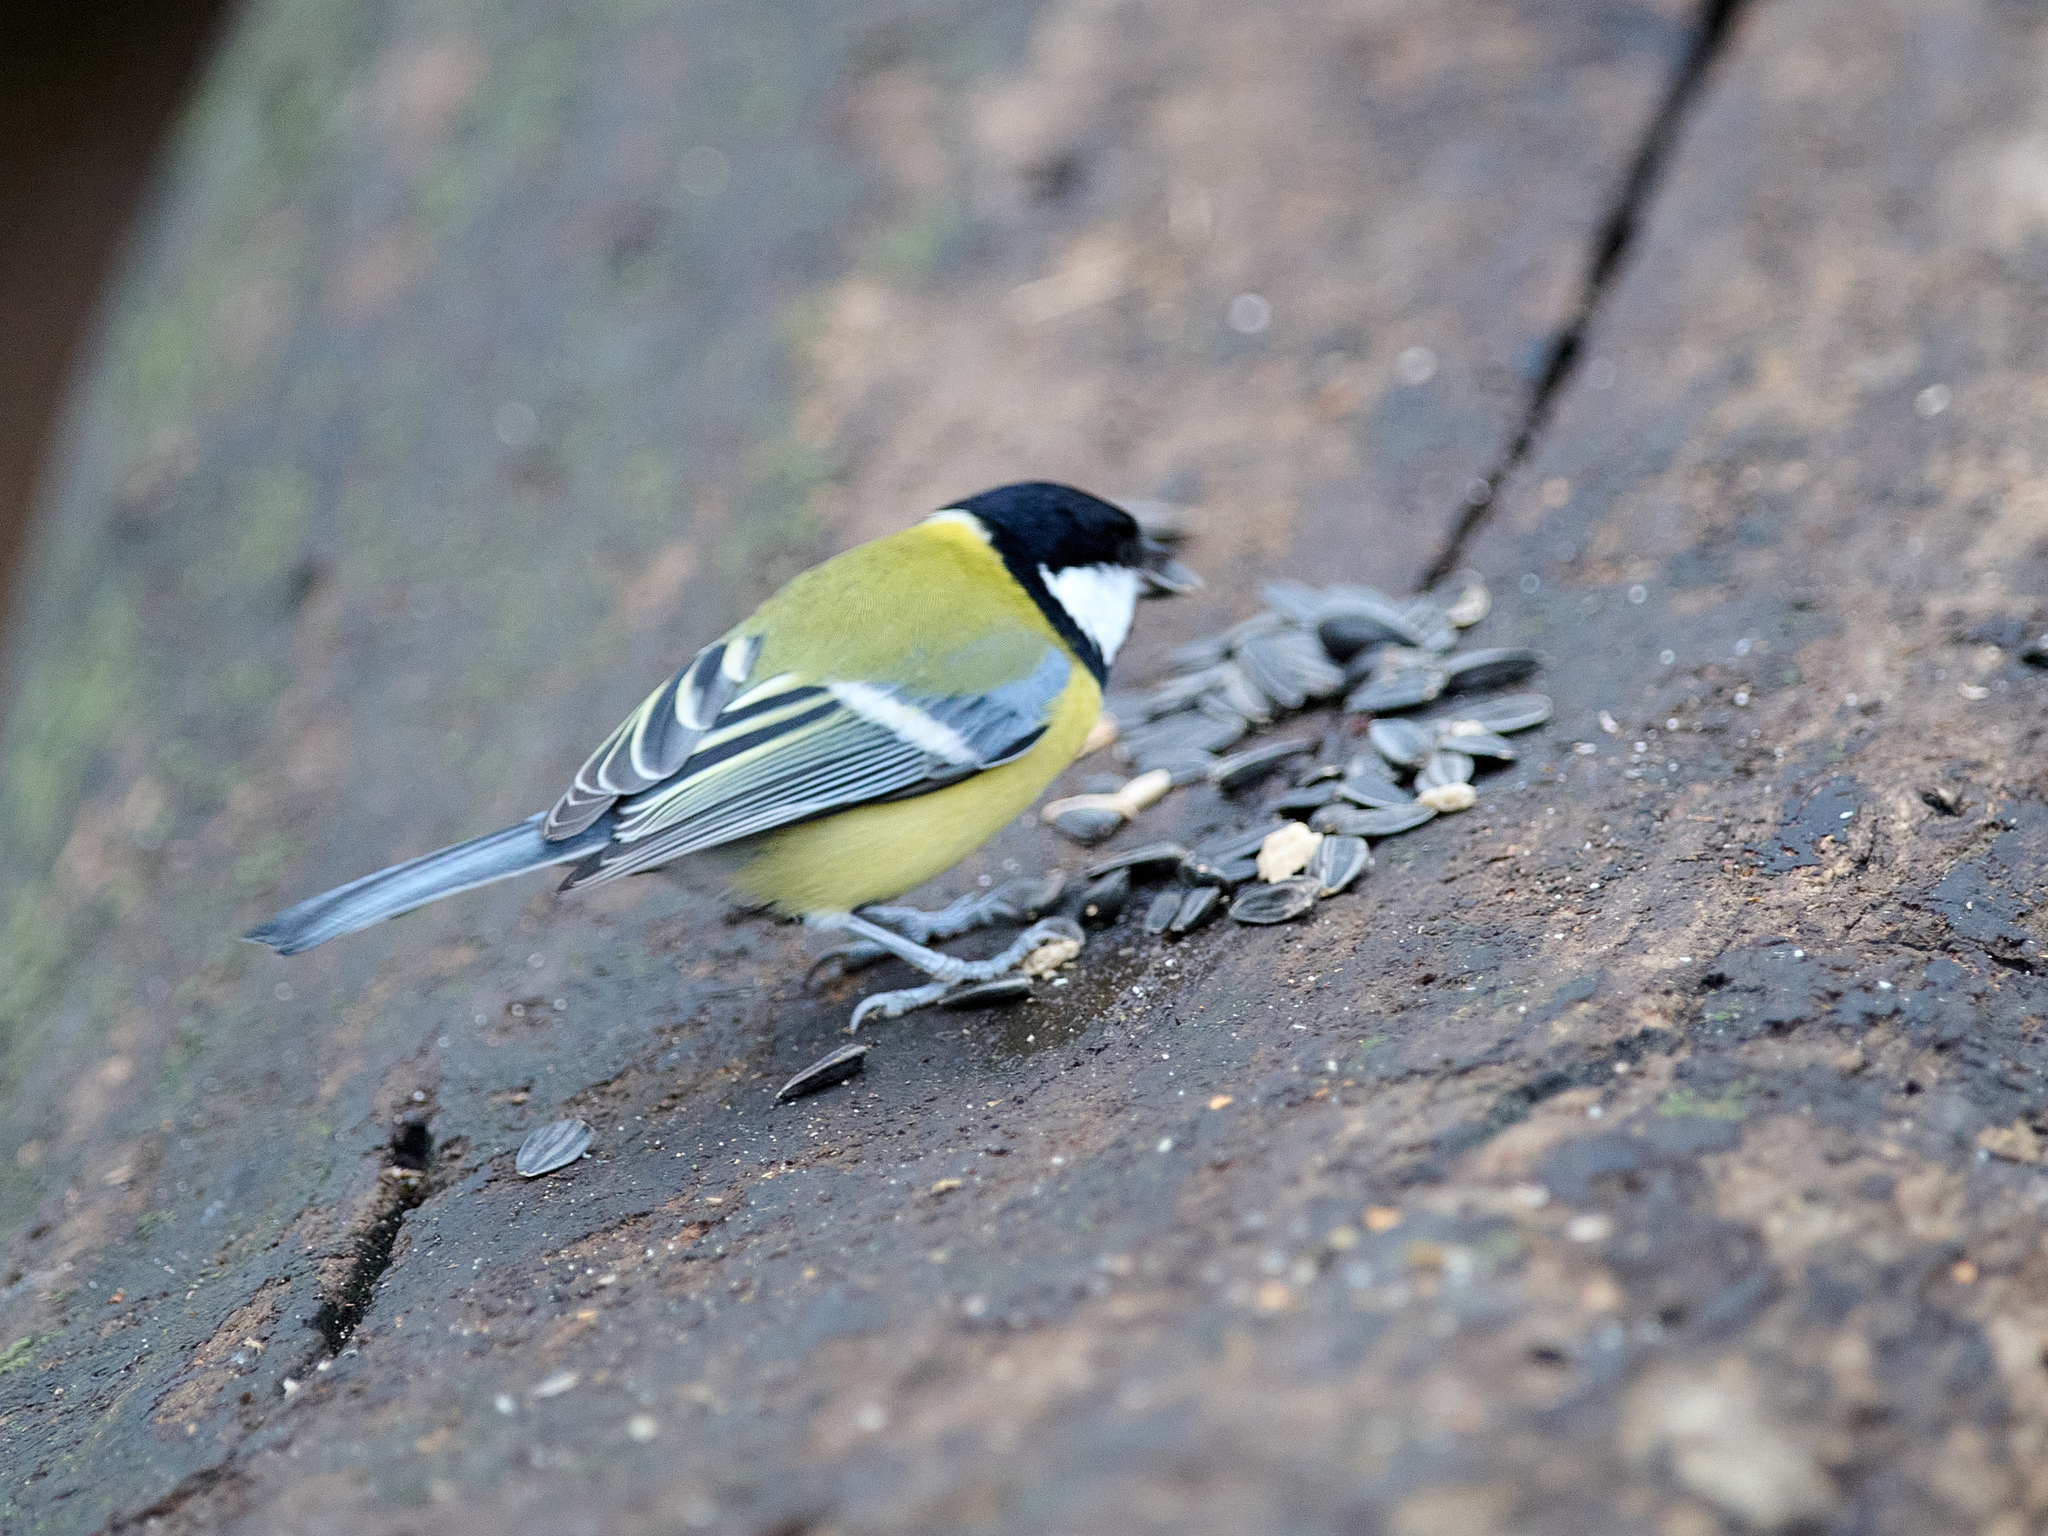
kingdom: Animalia
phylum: Chordata
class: Aves
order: Passeriformes
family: Paridae
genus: Parus
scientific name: Parus major
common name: Great tit
